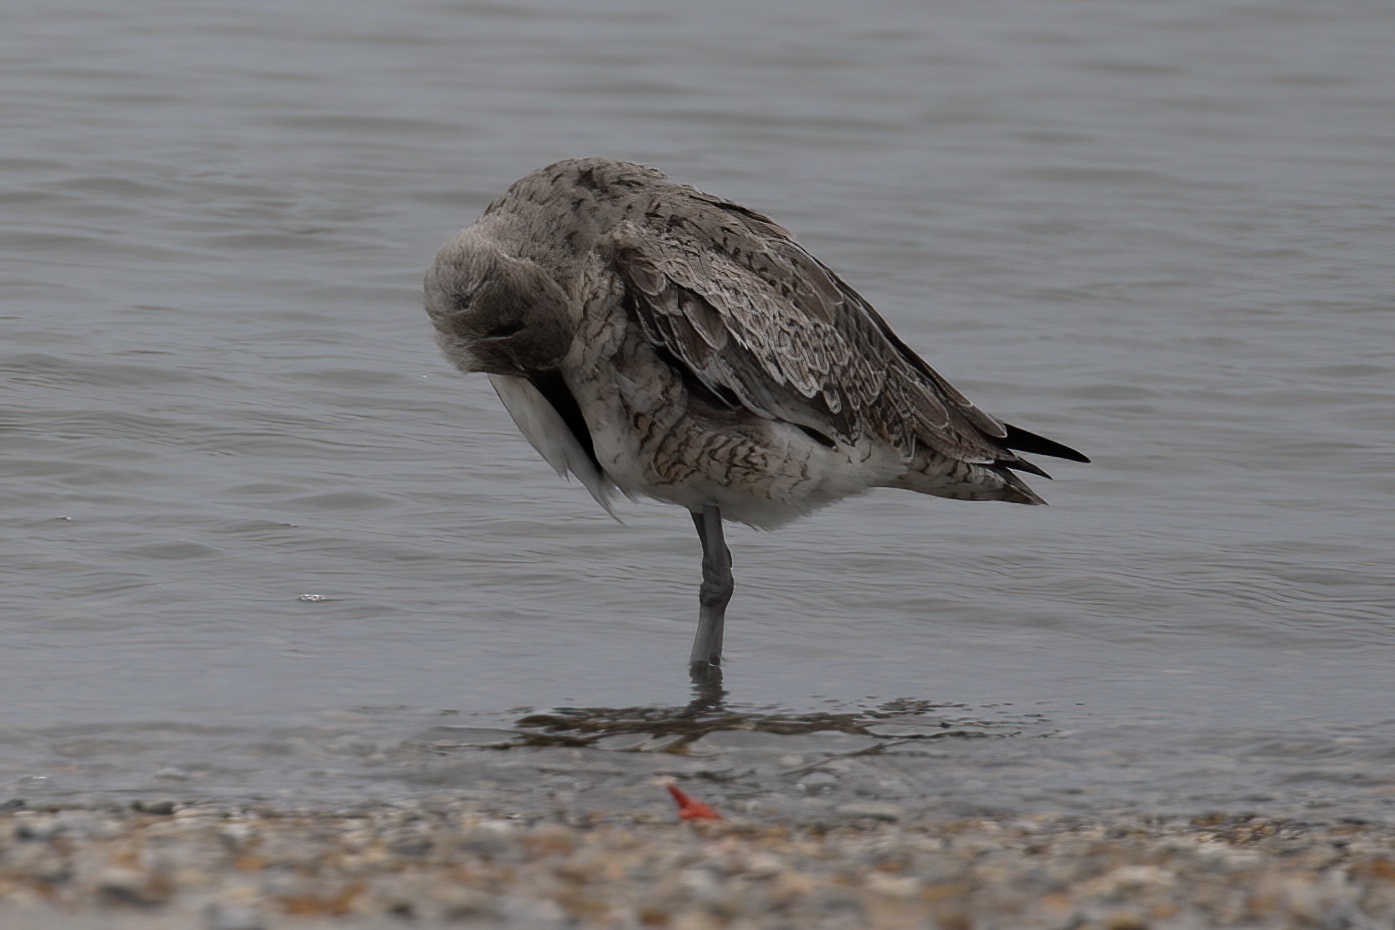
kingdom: Animalia
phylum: Chordata
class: Aves
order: Charadriiformes
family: Scolopacidae
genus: Tringa
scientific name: Tringa semipalmata
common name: Willet
